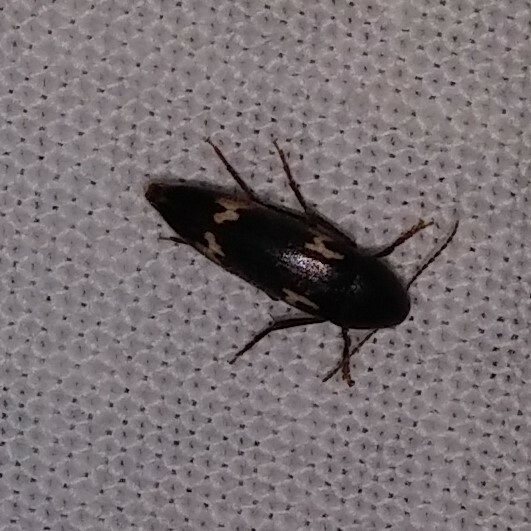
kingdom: Animalia
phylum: Arthropoda
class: Insecta
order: Coleoptera
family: Melandryidae
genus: Dircaea
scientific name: Dircaea liturata
